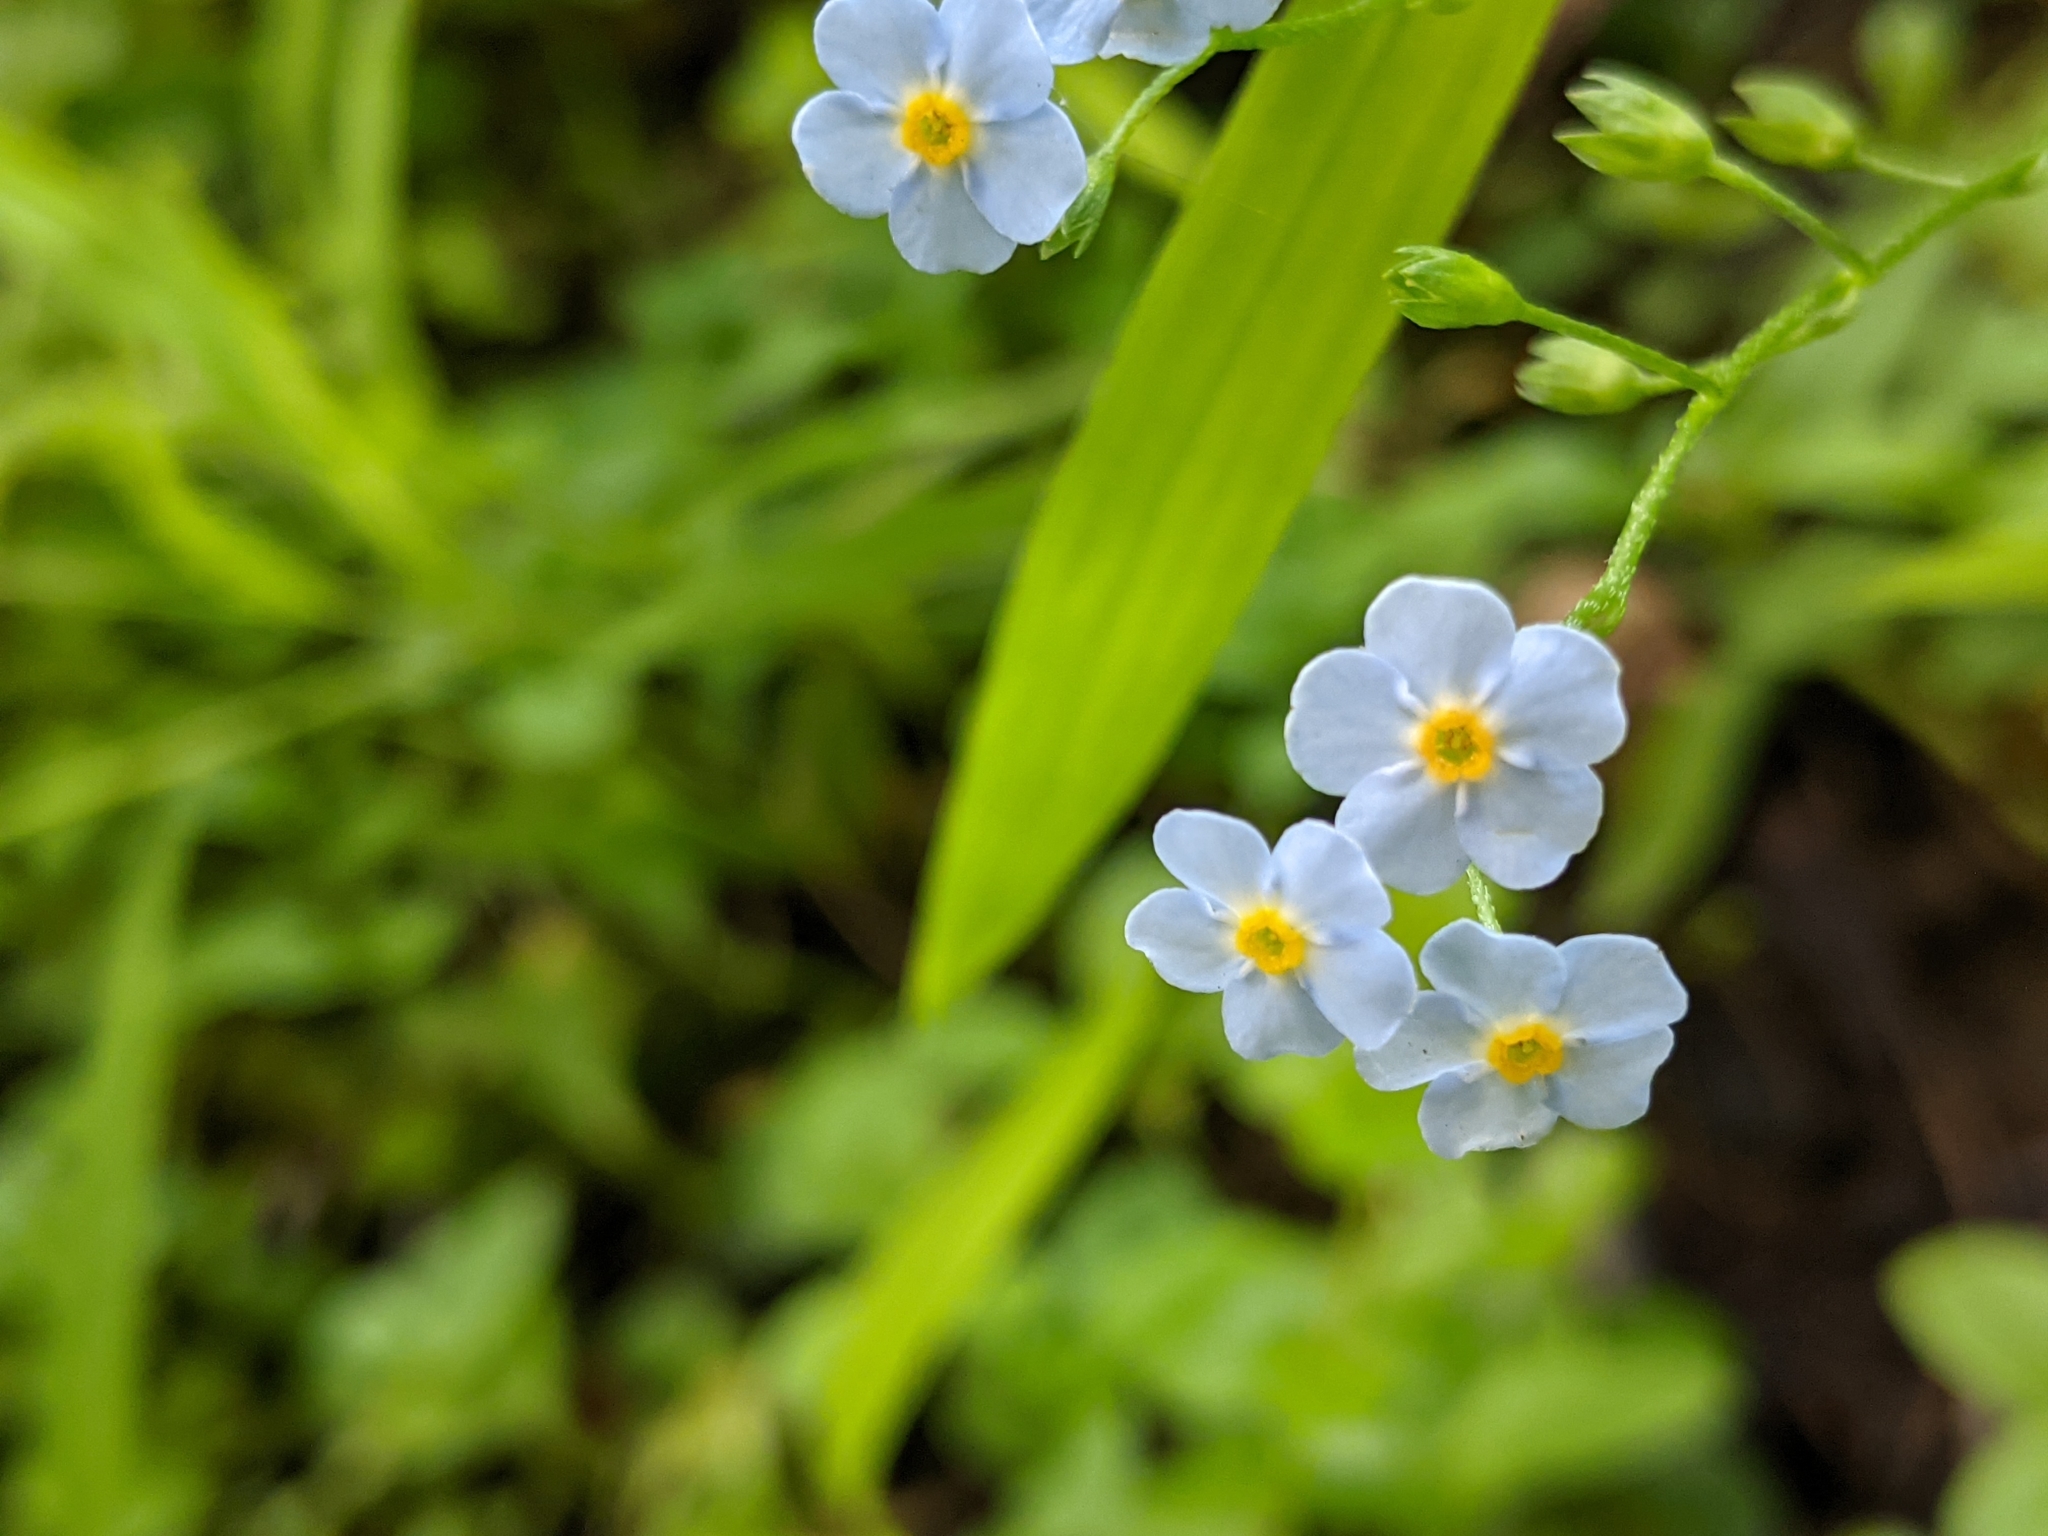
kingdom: Plantae
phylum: Tracheophyta
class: Magnoliopsida
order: Boraginales
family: Boraginaceae
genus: Myosotis
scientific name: Myosotis scorpioides
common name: Water forget-me-not
